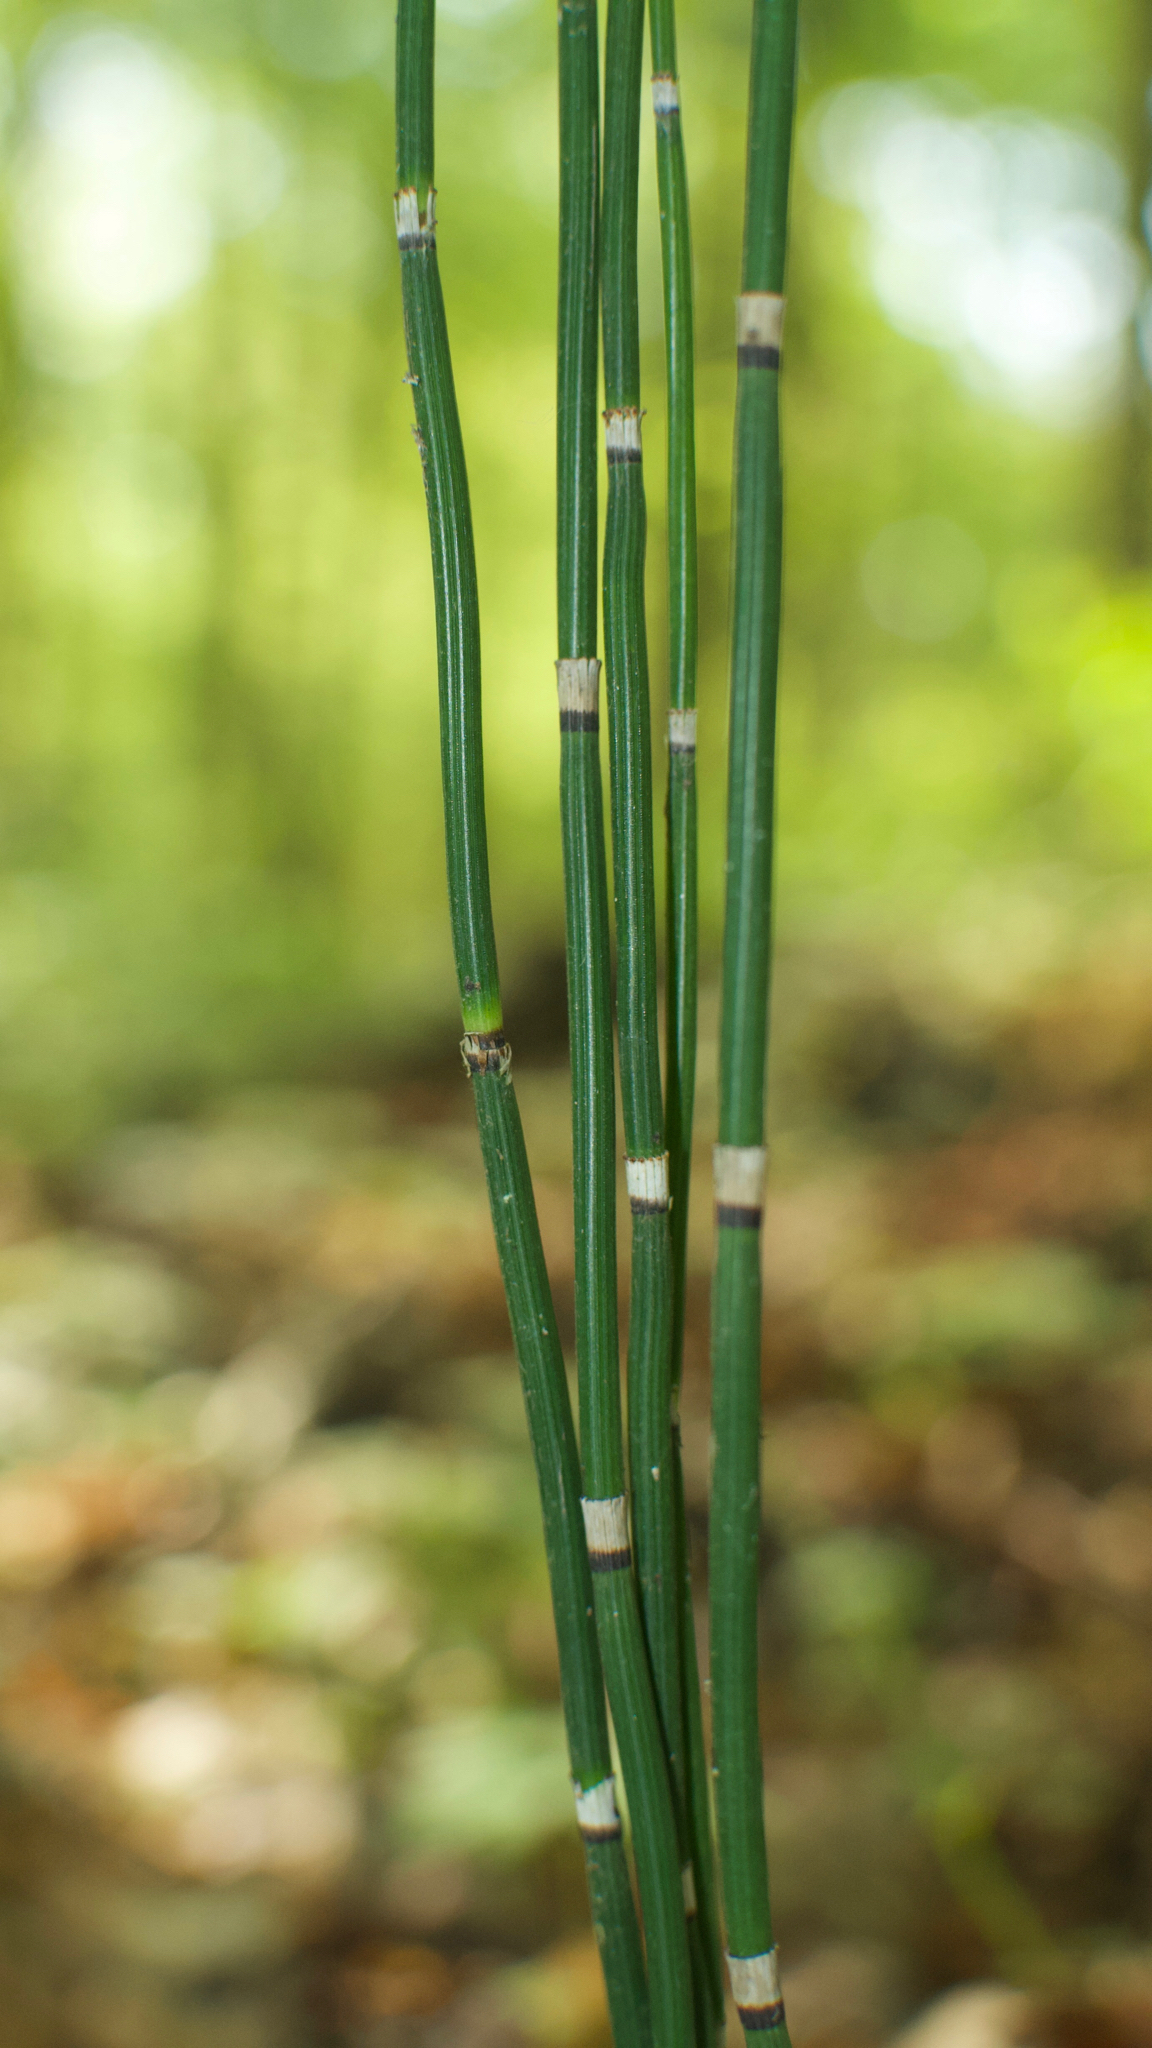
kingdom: Plantae
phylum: Tracheophyta
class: Polypodiopsida
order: Equisetales
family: Equisetaceae
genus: Equisetum
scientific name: Equisetum hyemale
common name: Rough horsetail
